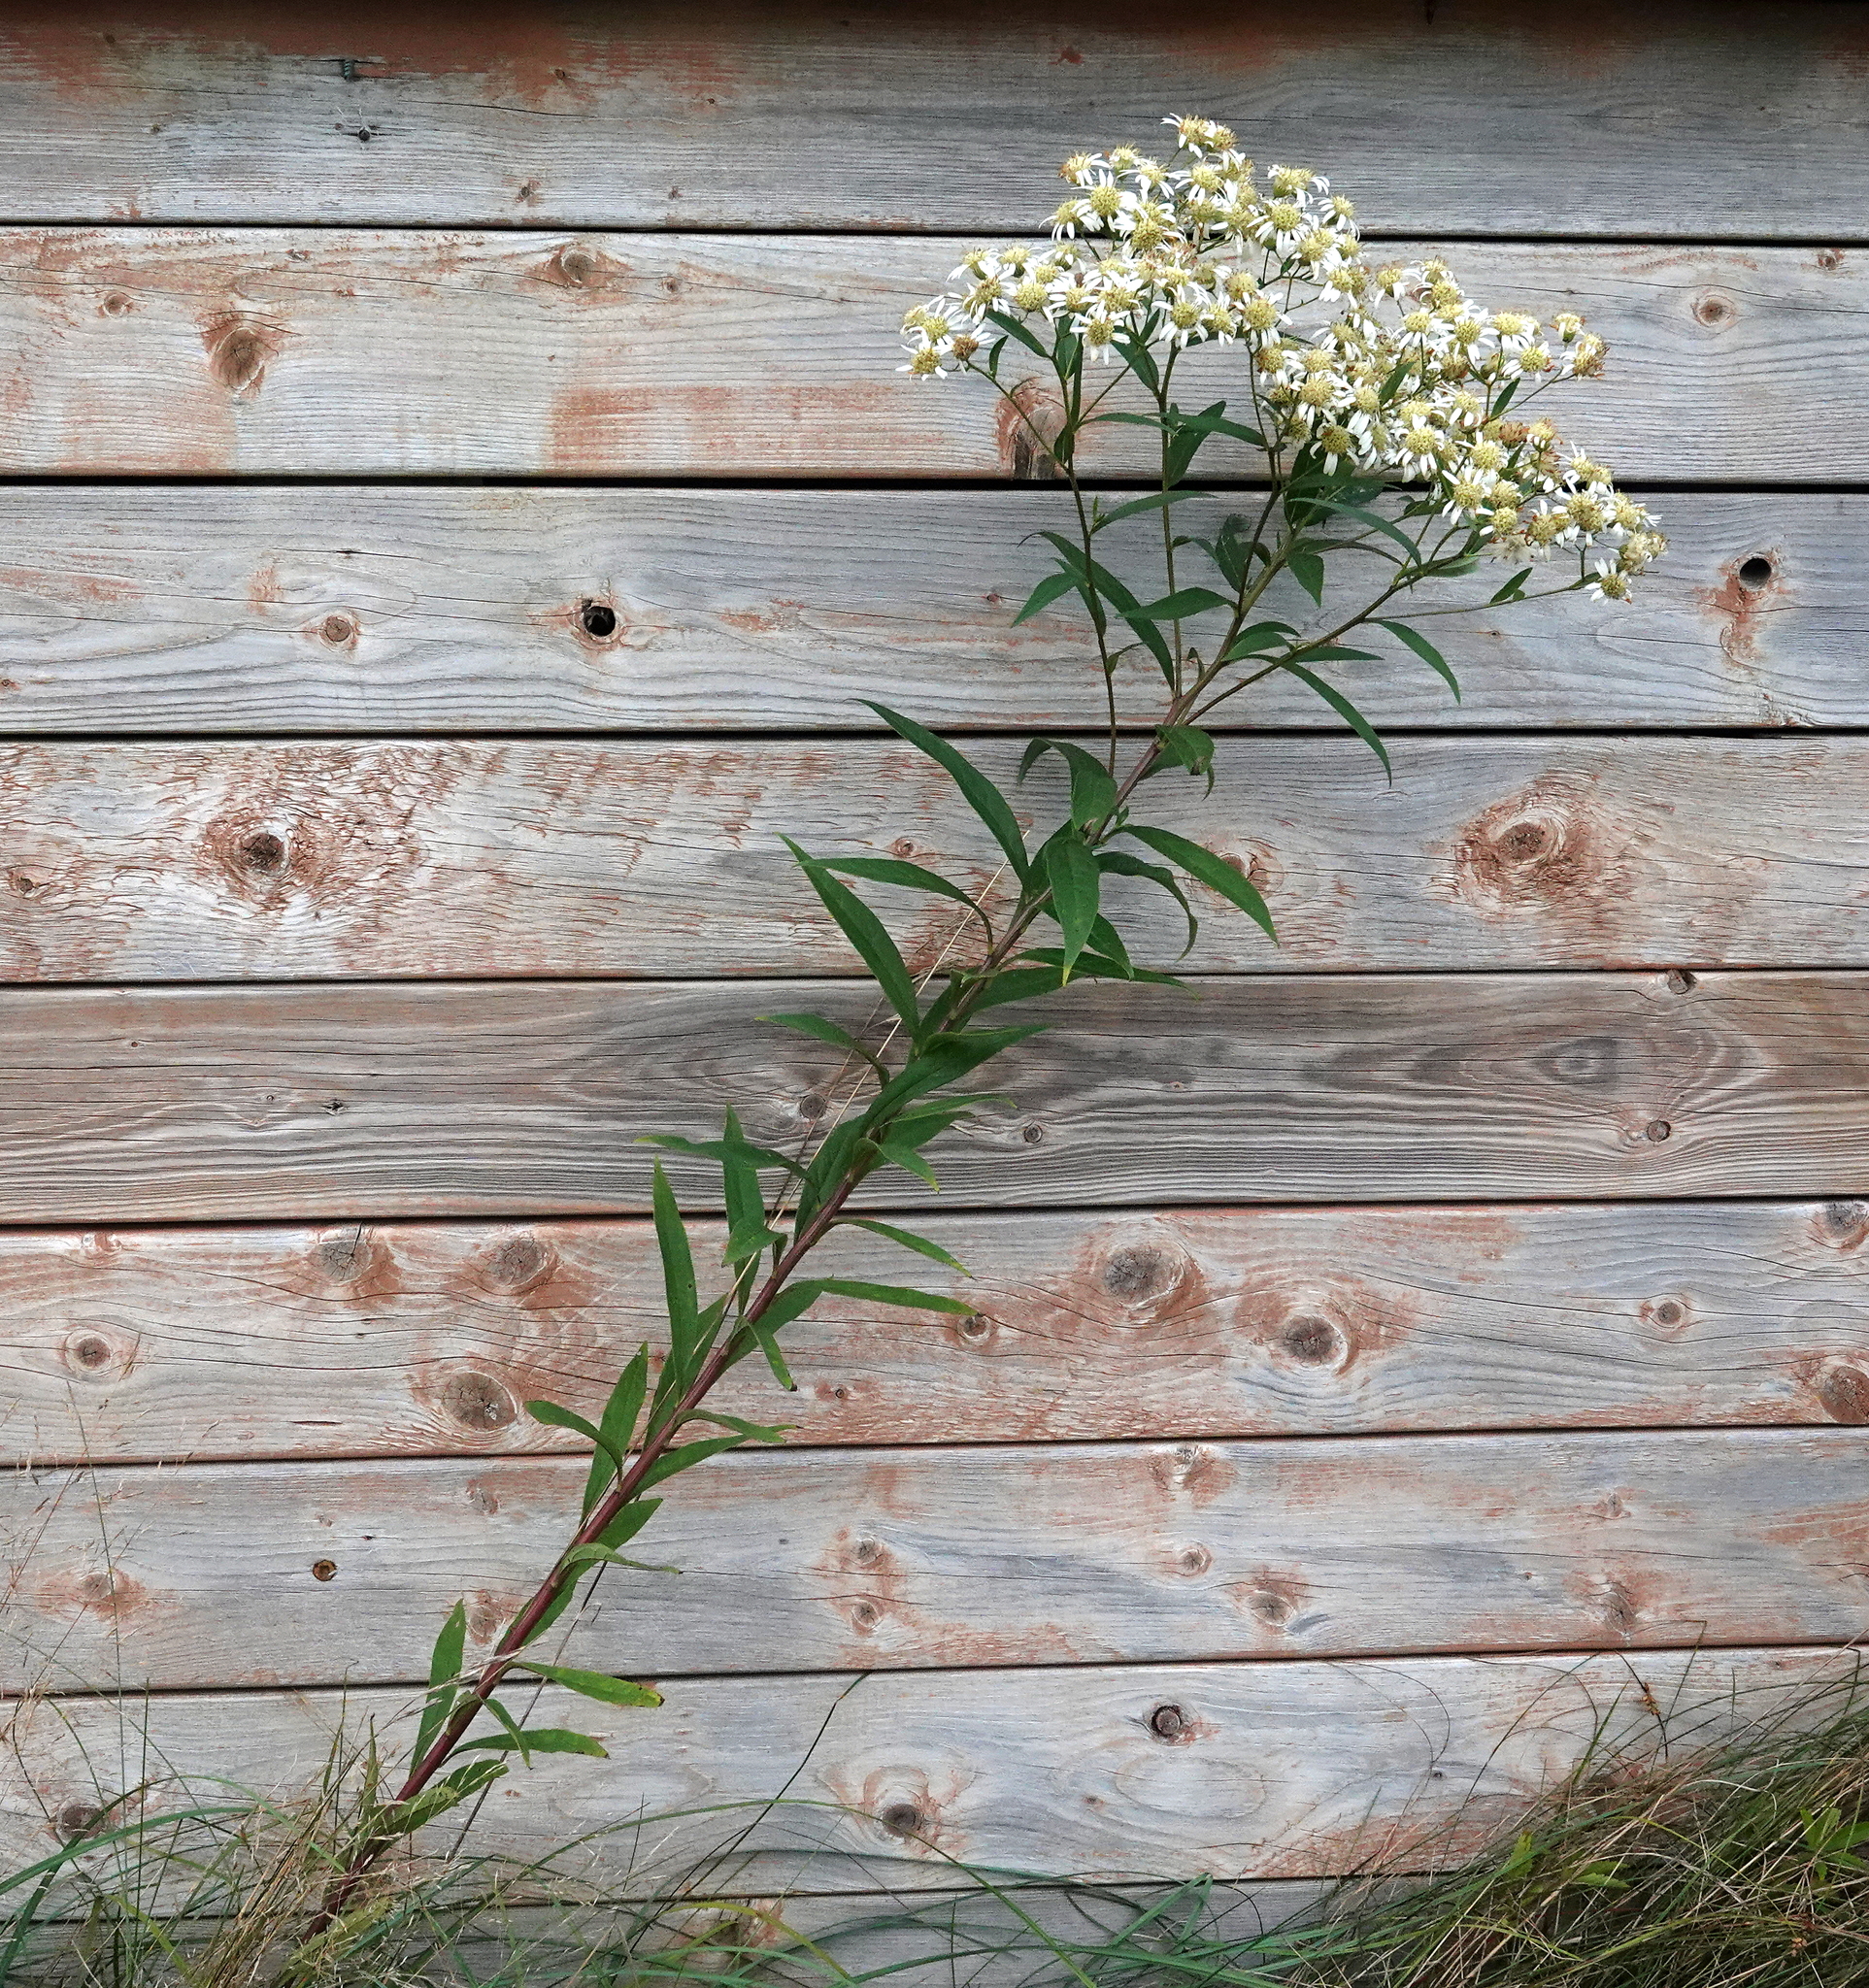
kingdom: Plantae
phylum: Tracheophyta
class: Magnoliopsida
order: Asterales
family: Asteraceae
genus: Doellingeria
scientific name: Doellingeria umbellata
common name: Flat-top white aster
